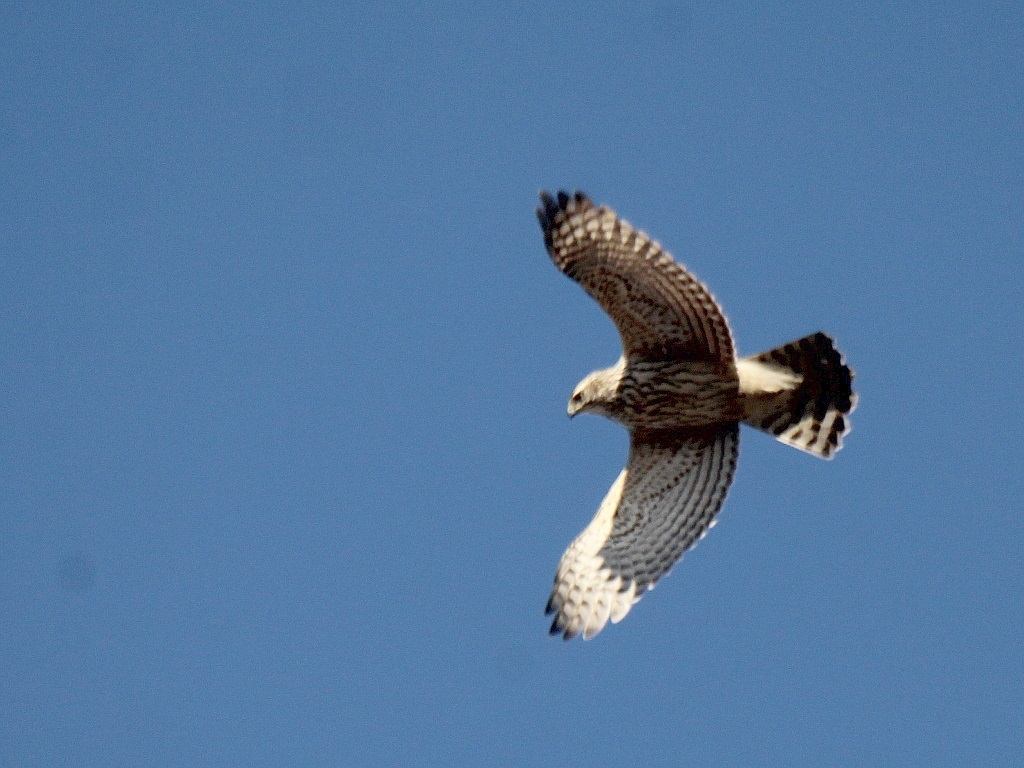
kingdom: Animalia
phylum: Chordata
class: Aves
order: Accipitriformes
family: Accipitridae
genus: Accipiter
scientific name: Accipiter gentilis
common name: Northern goshawk
